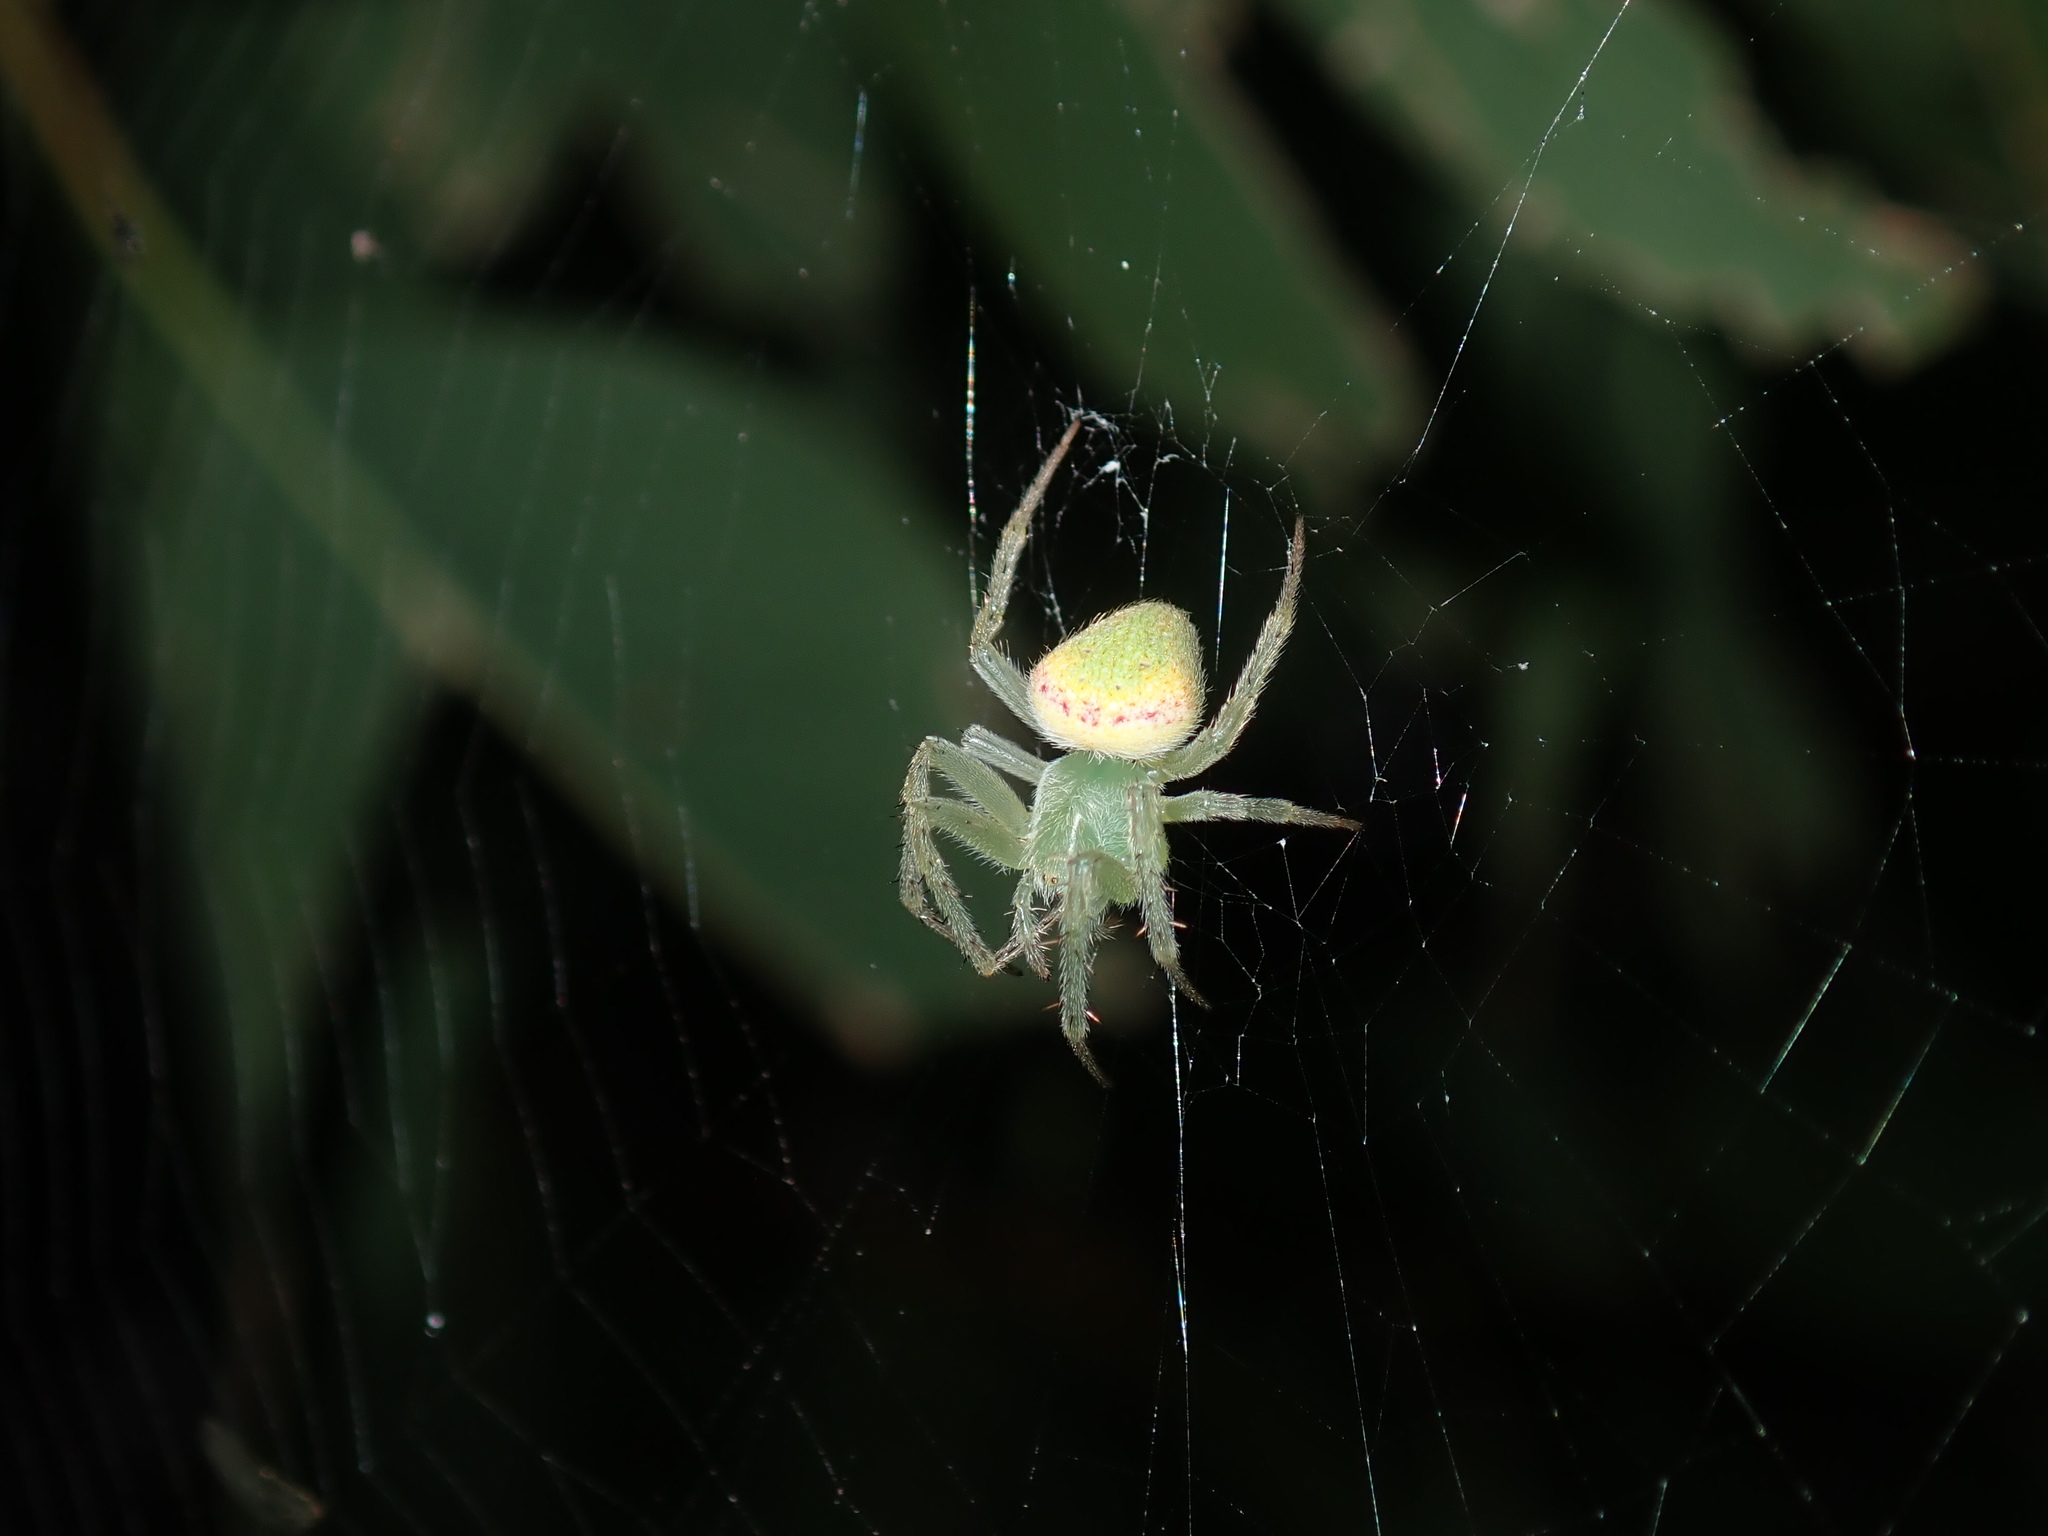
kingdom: Animalia
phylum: Arthropoda
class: Arachnida
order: Araneae
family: Araneidae
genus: Araneus
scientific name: Araneus circulissparsus
